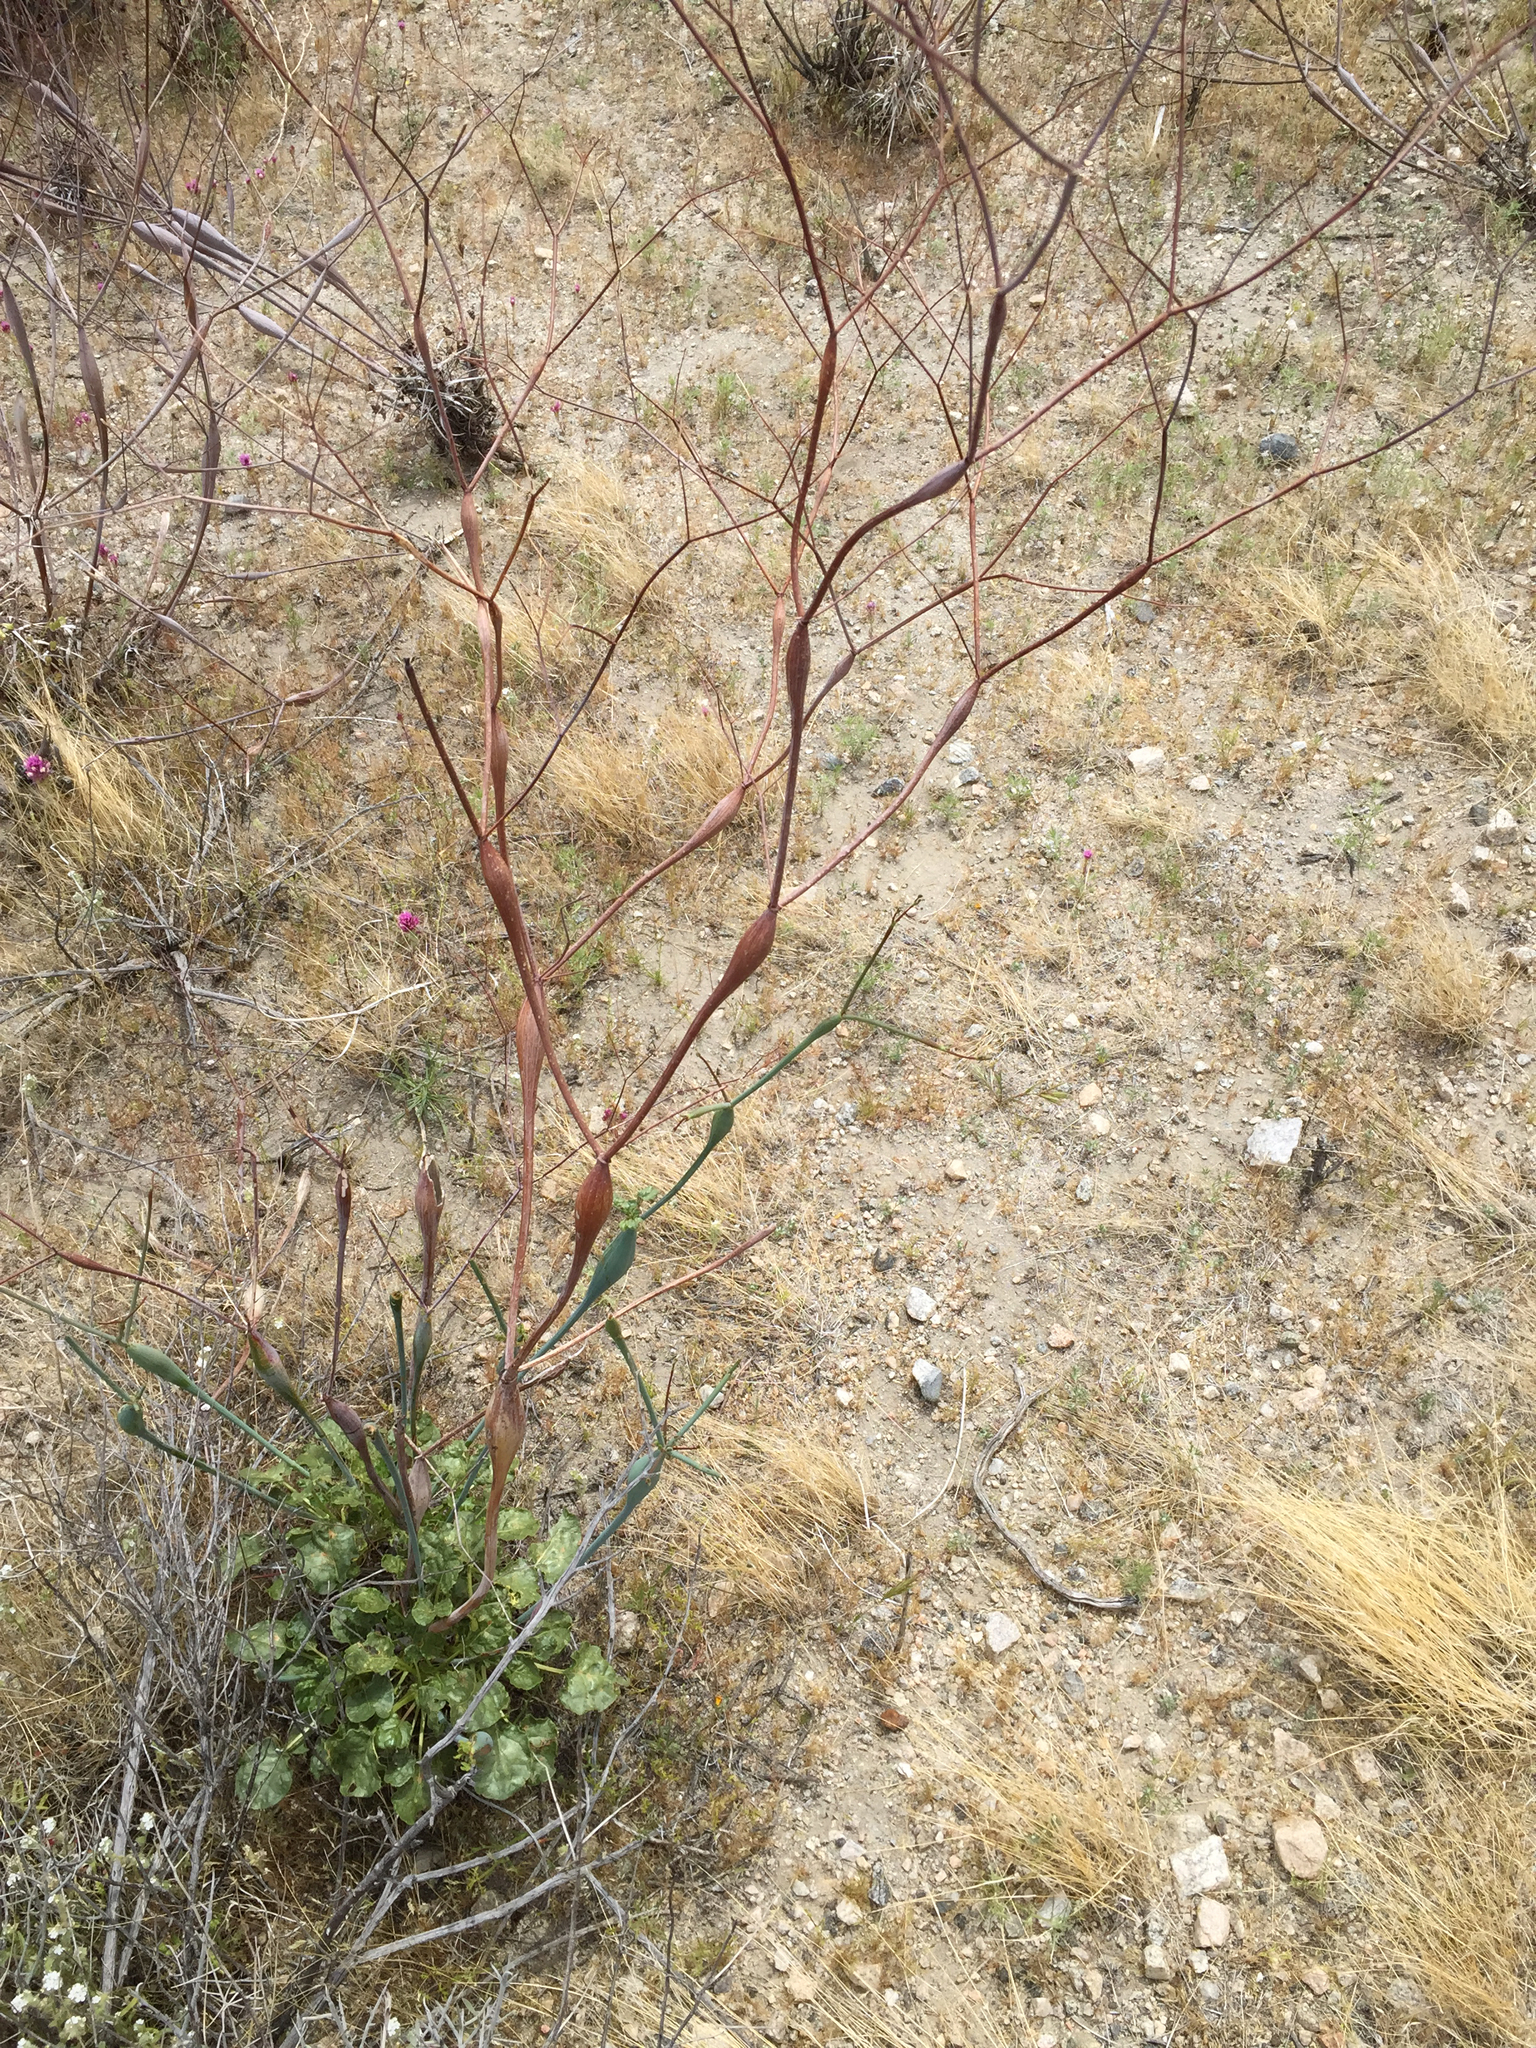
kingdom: Plantae
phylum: Tracheophyta
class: Magnoliopsida
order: Caryophyllales
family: Polygonaceae
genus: Eriogonum
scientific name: Eriogonum inflatum
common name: Desert trumpet
